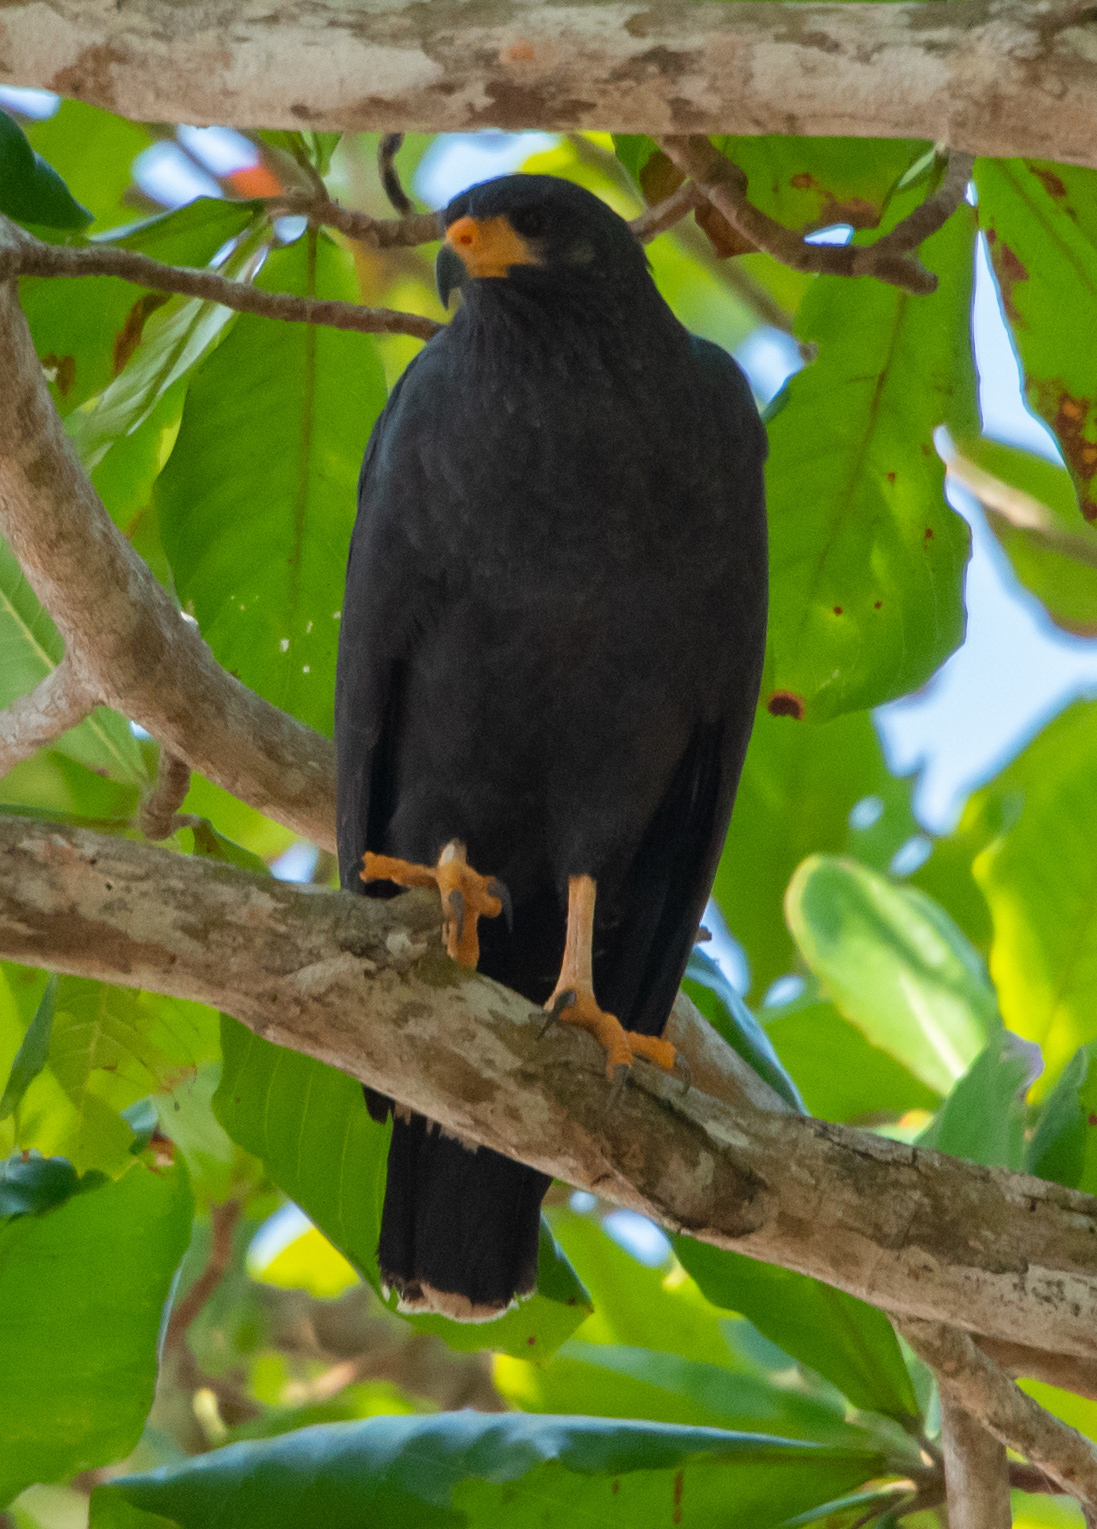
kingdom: Animalia
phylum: Chordata
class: Aves
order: Accipitriformes
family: Accipitridae
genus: Buteogallus
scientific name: Buteogallus anthracinus
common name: Common black hawk
